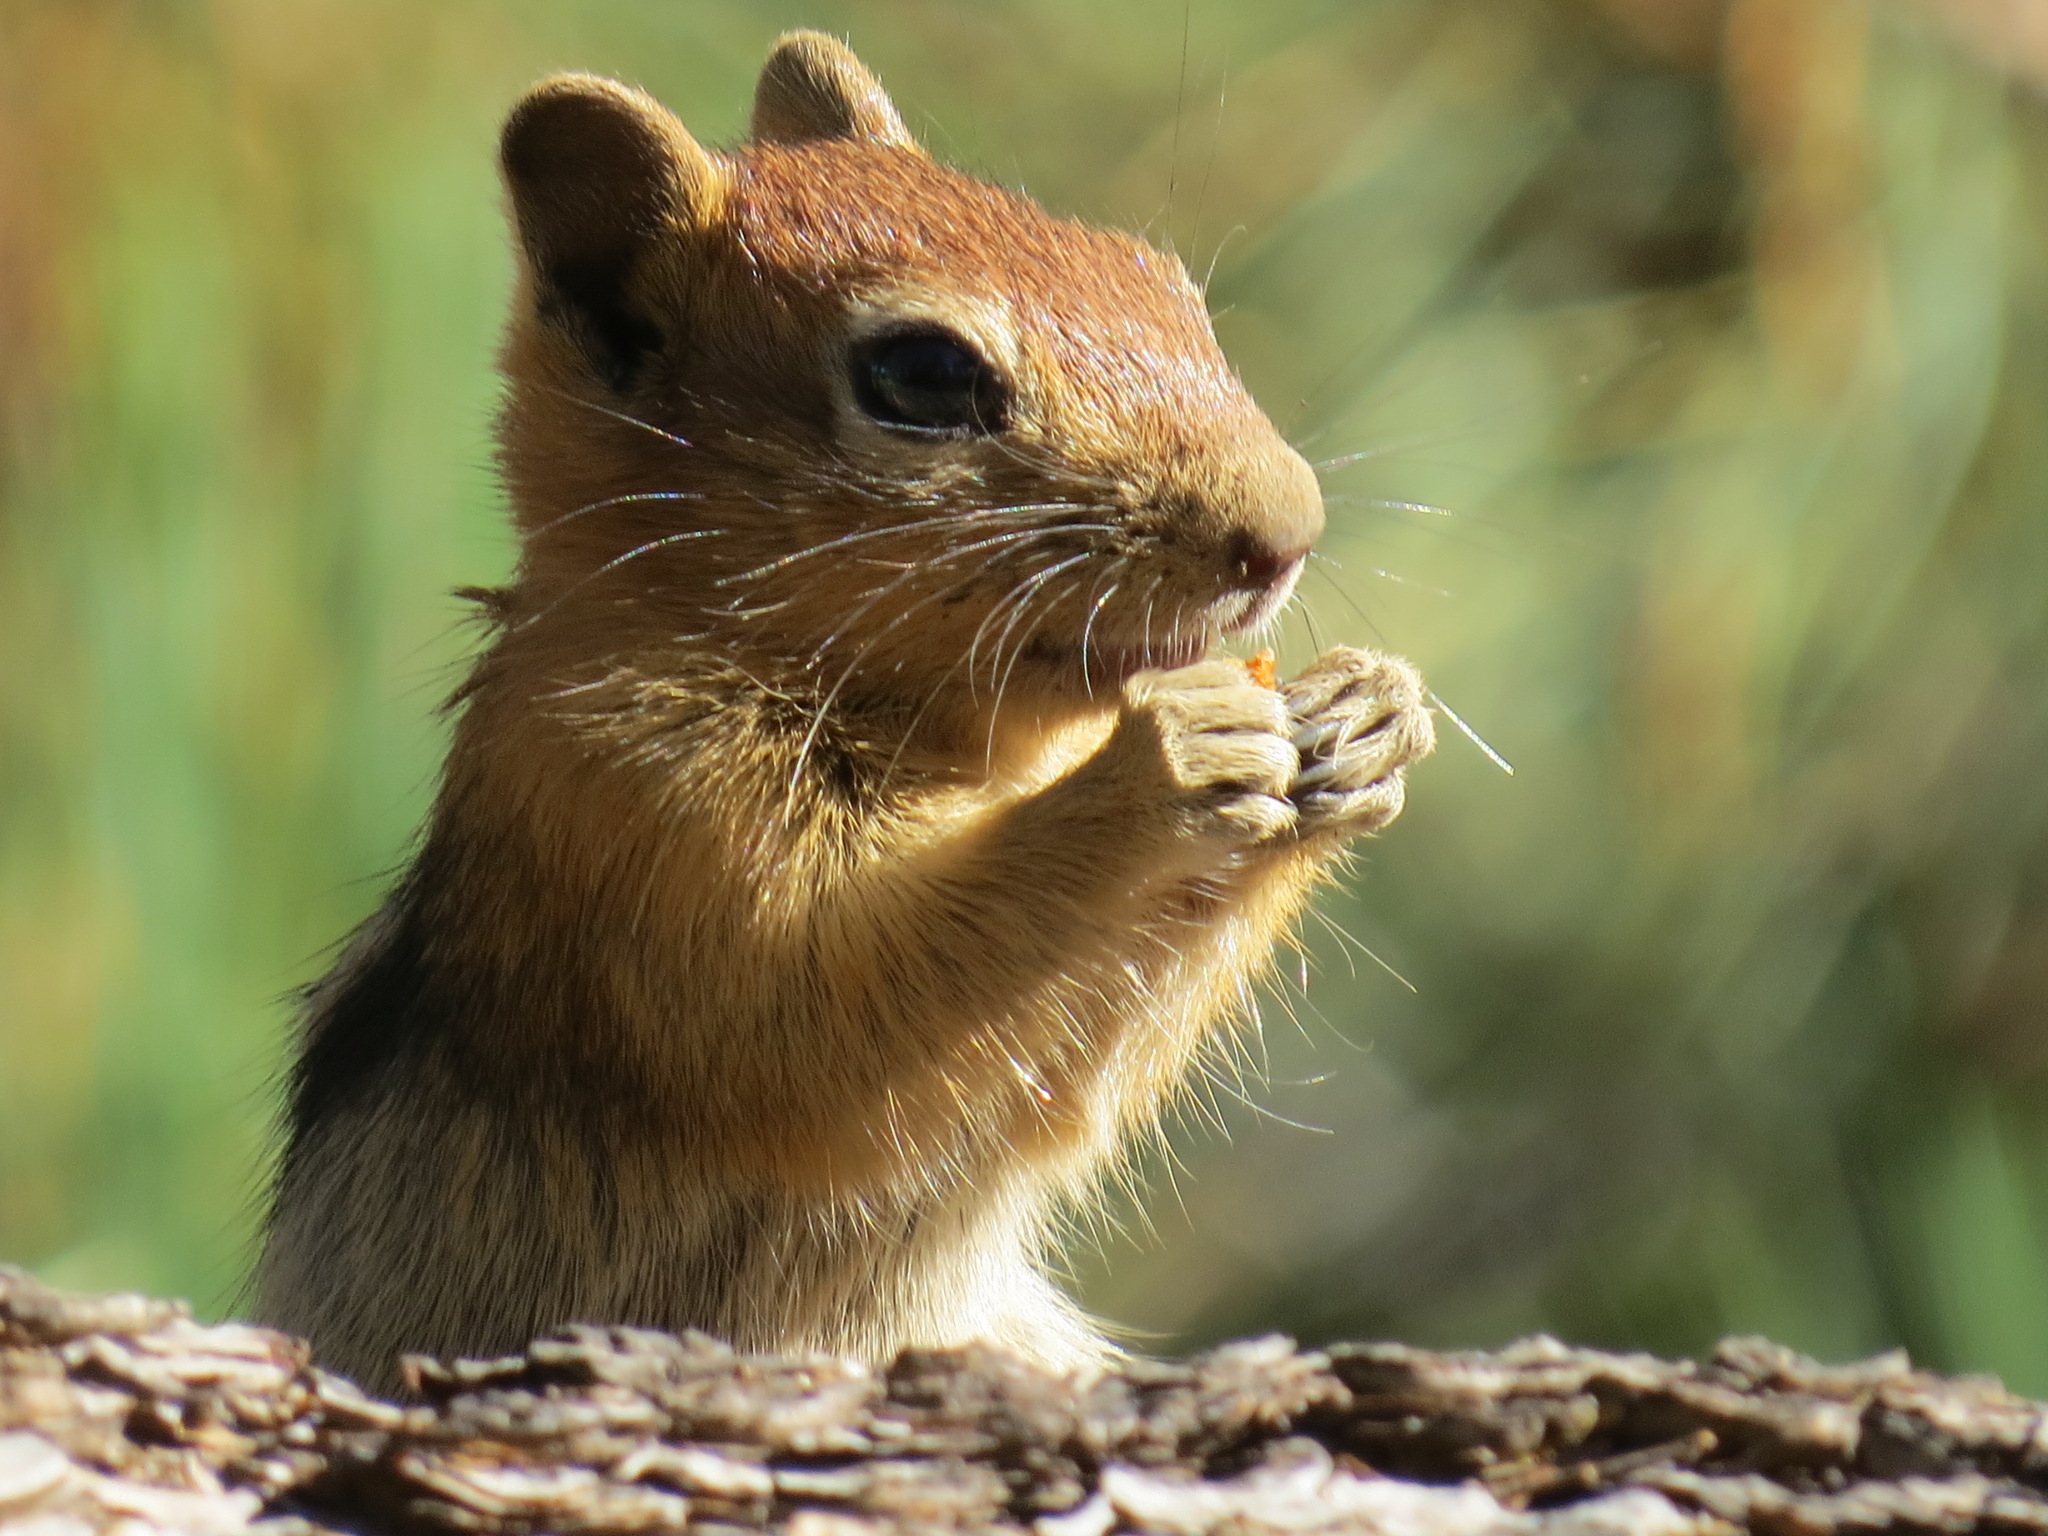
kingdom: Animalia
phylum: Chordata
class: Mammalia
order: Rodentia
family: Sciuridae
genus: Callospermophilus
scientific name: Callospermophilus lateralis
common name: Golden-mantled ground squirrel
